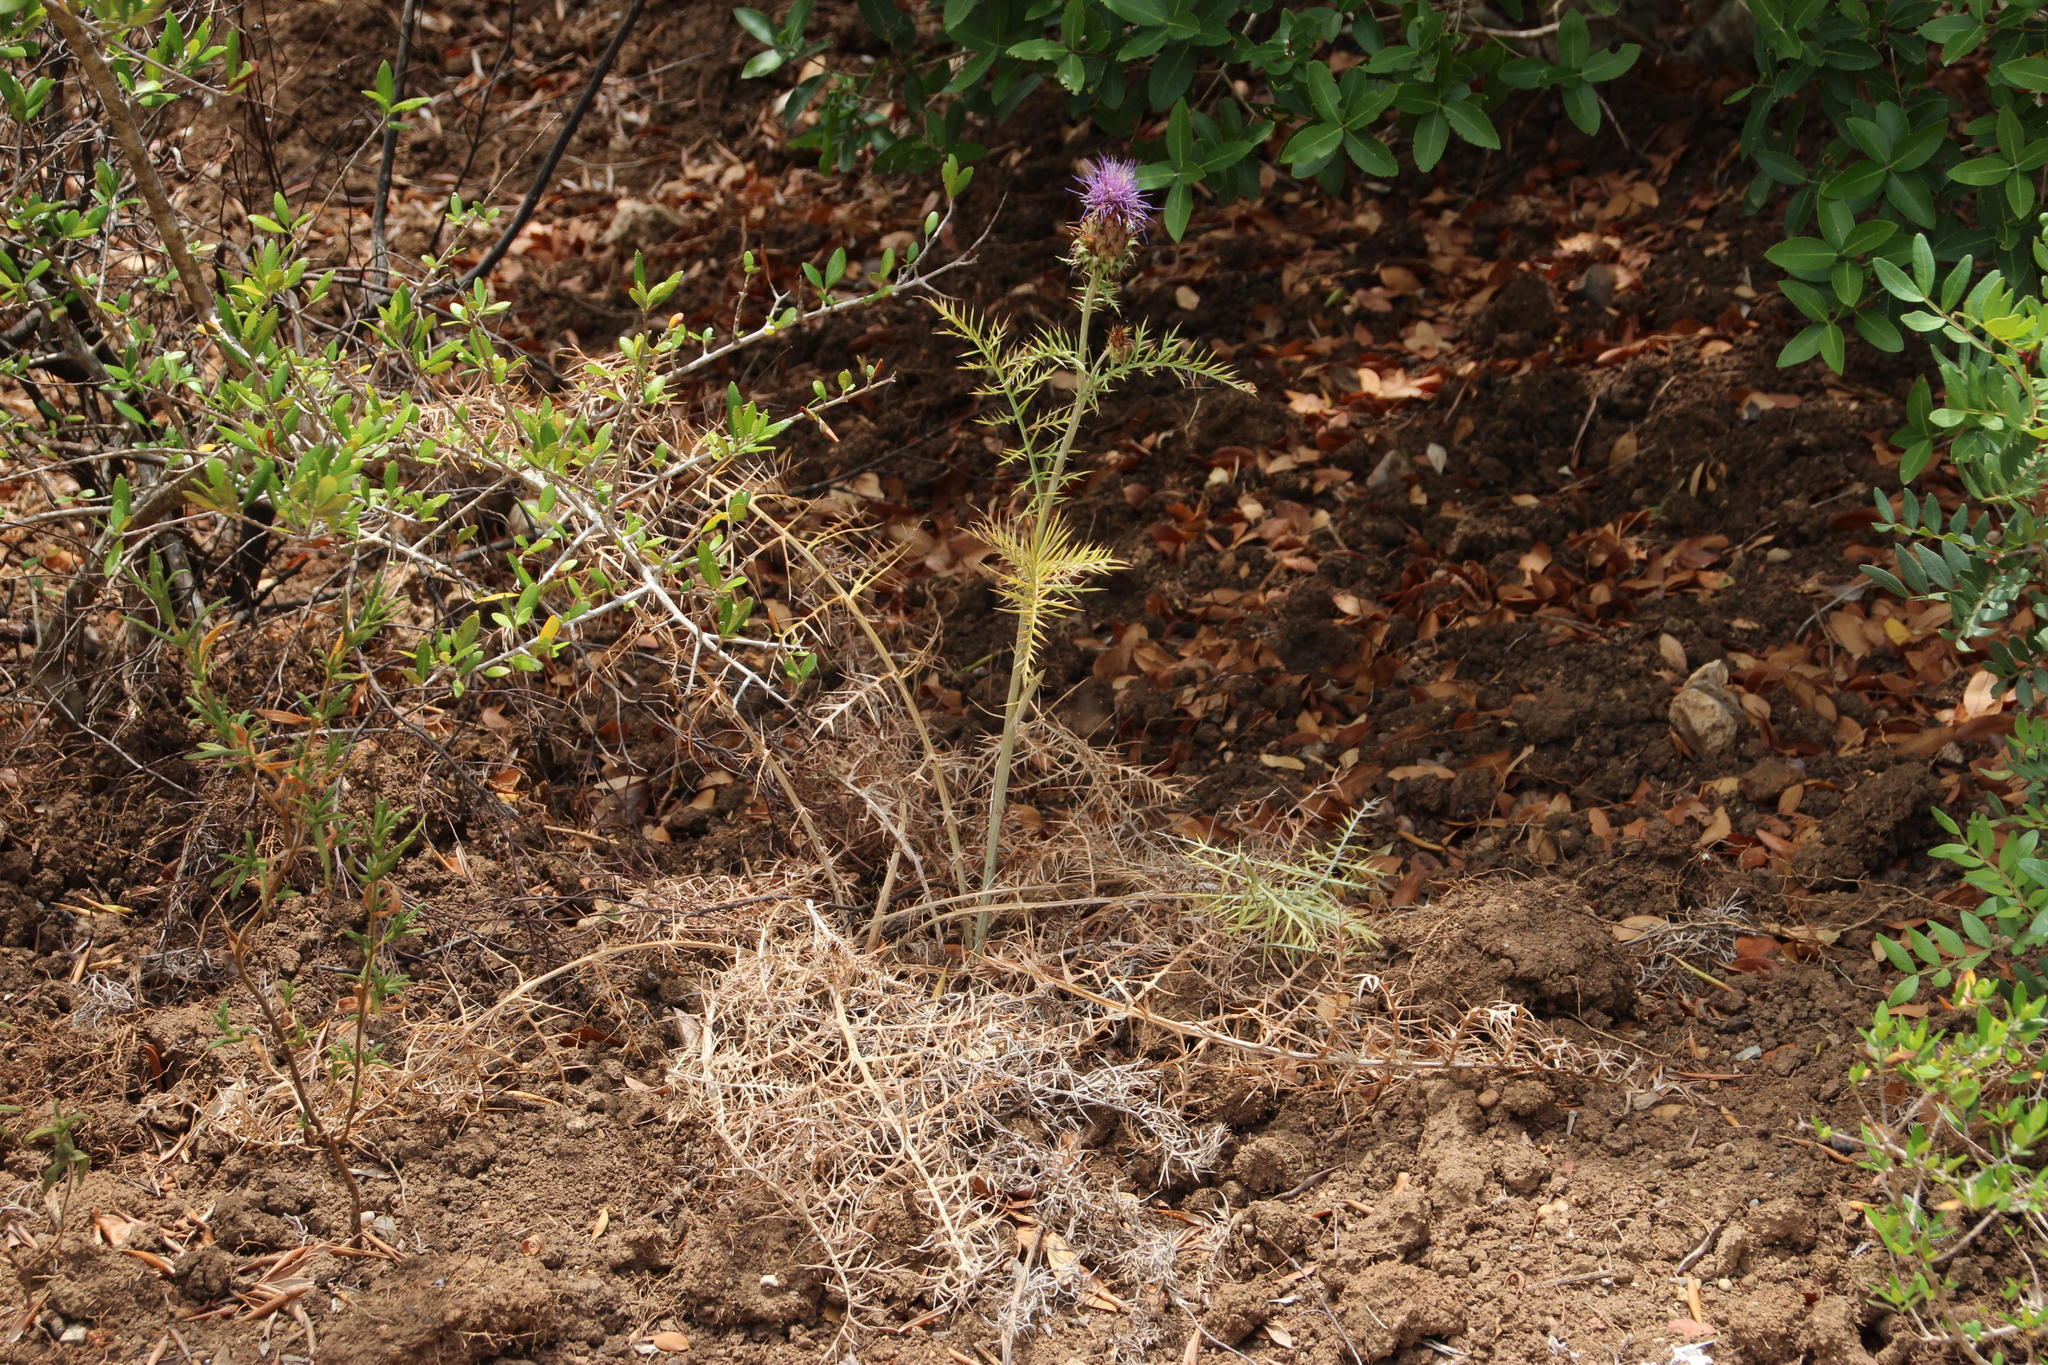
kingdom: Plantae
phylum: Tracheophyta
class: Magnoliopsida
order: Asterales
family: Asteraceae
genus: Cynara
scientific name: Cynara humilis
